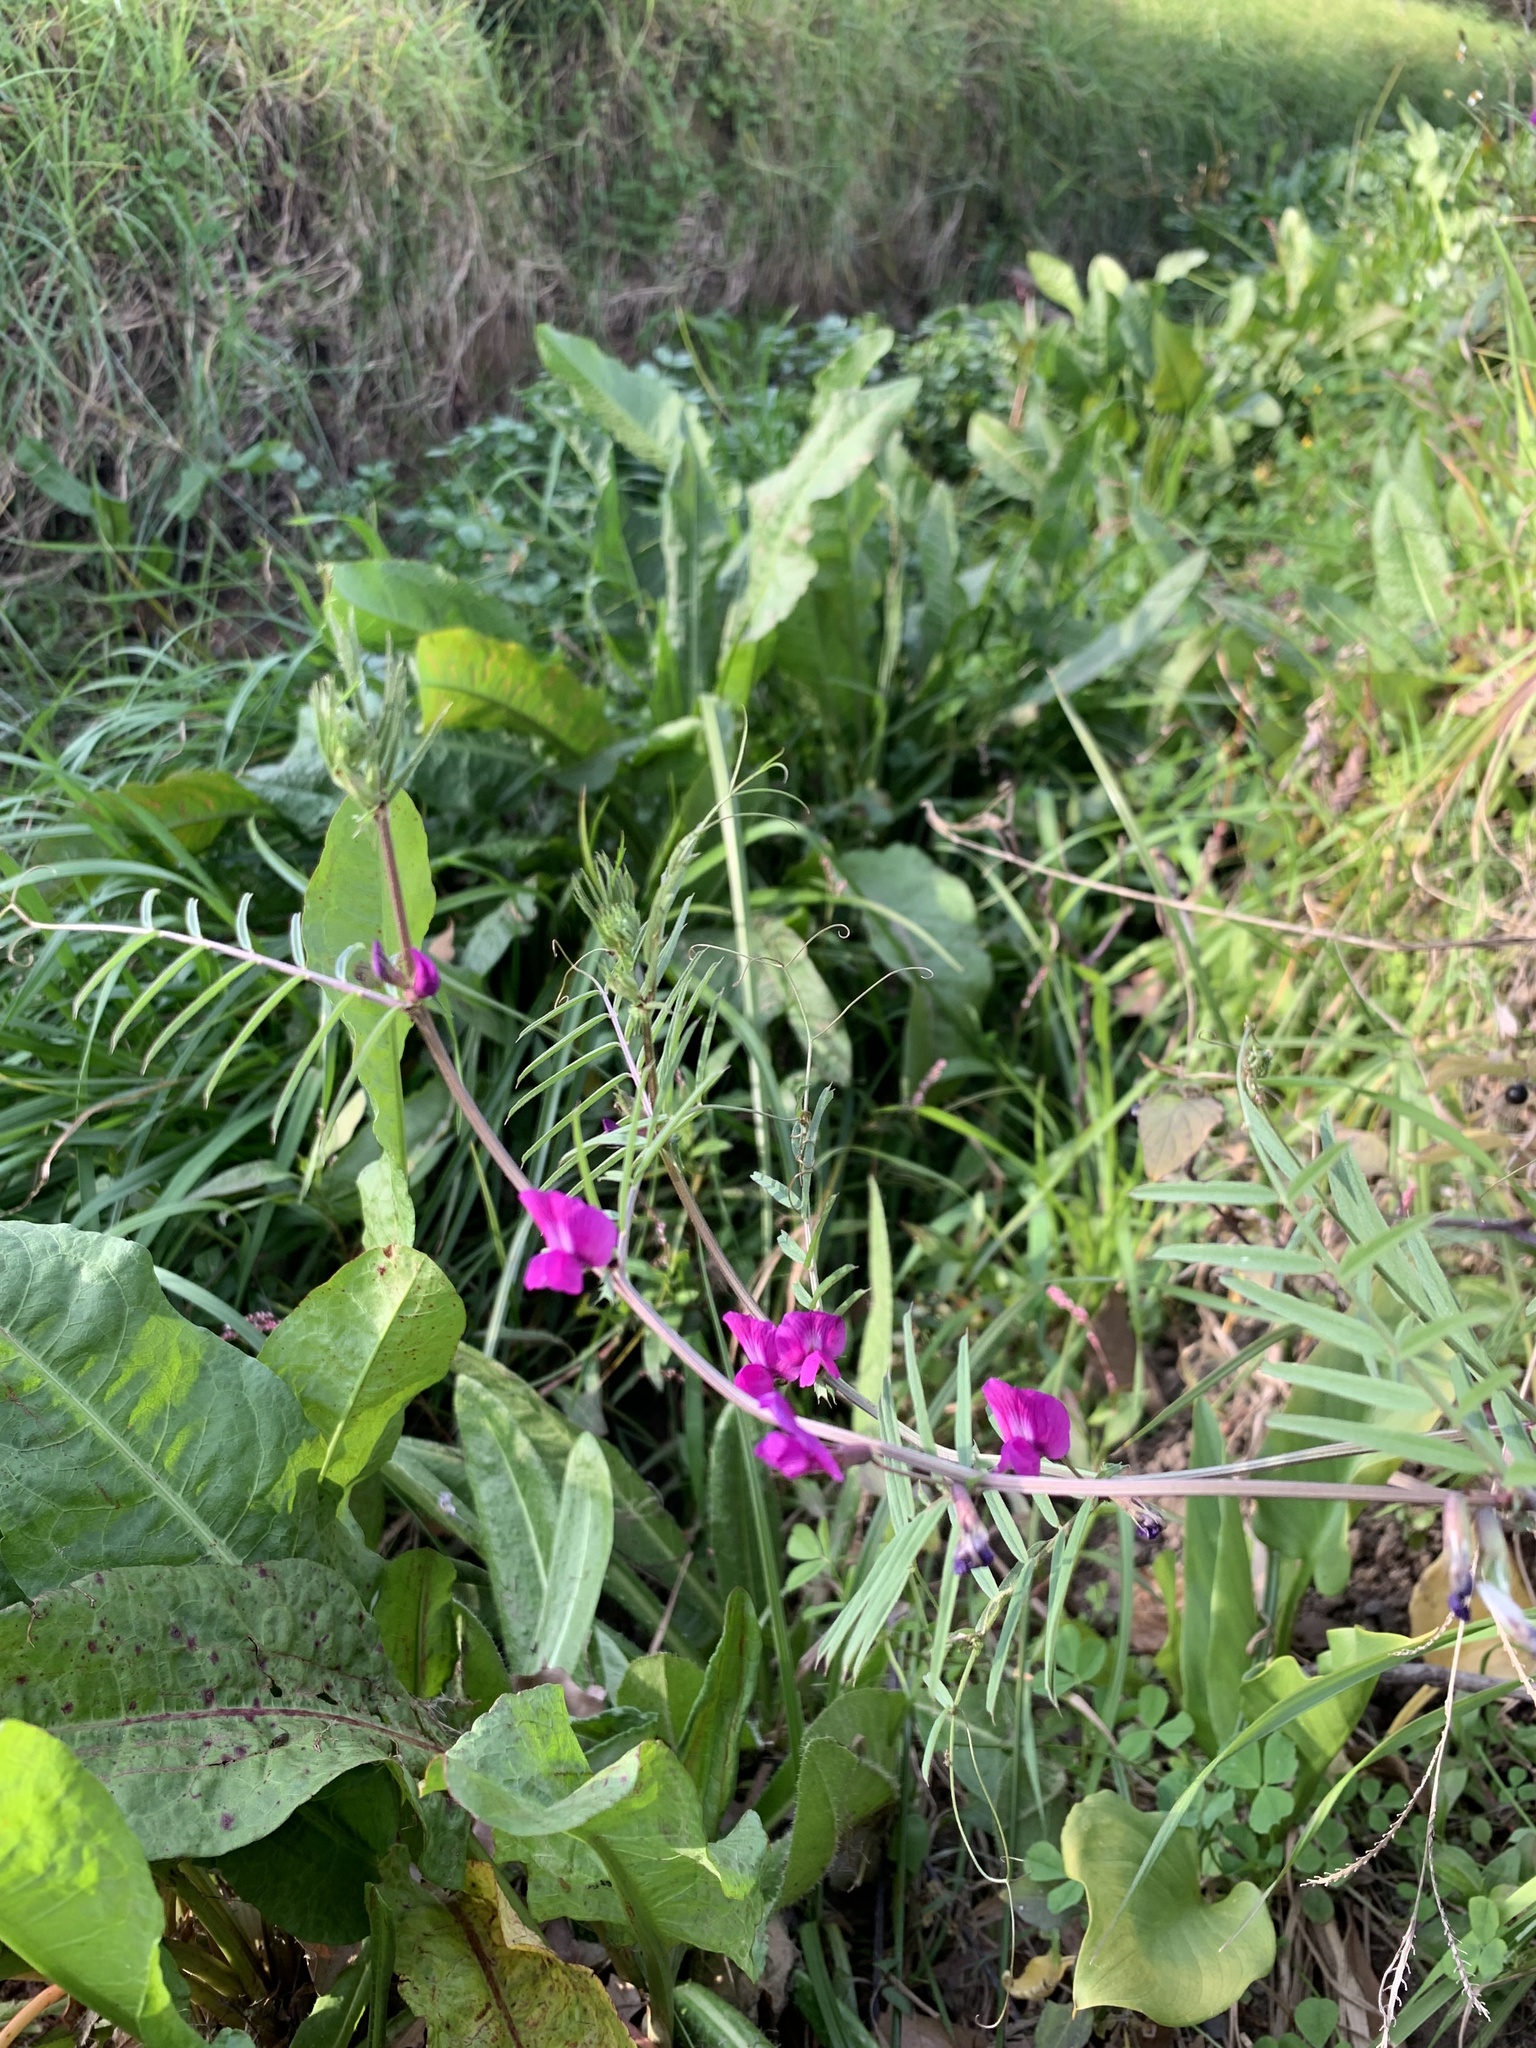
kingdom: Plantae
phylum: Tracheophyta
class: Magnoliopsida
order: Fabales
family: Fabaceae
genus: Vicia
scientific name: Vicia sativa
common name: Garden vetch
